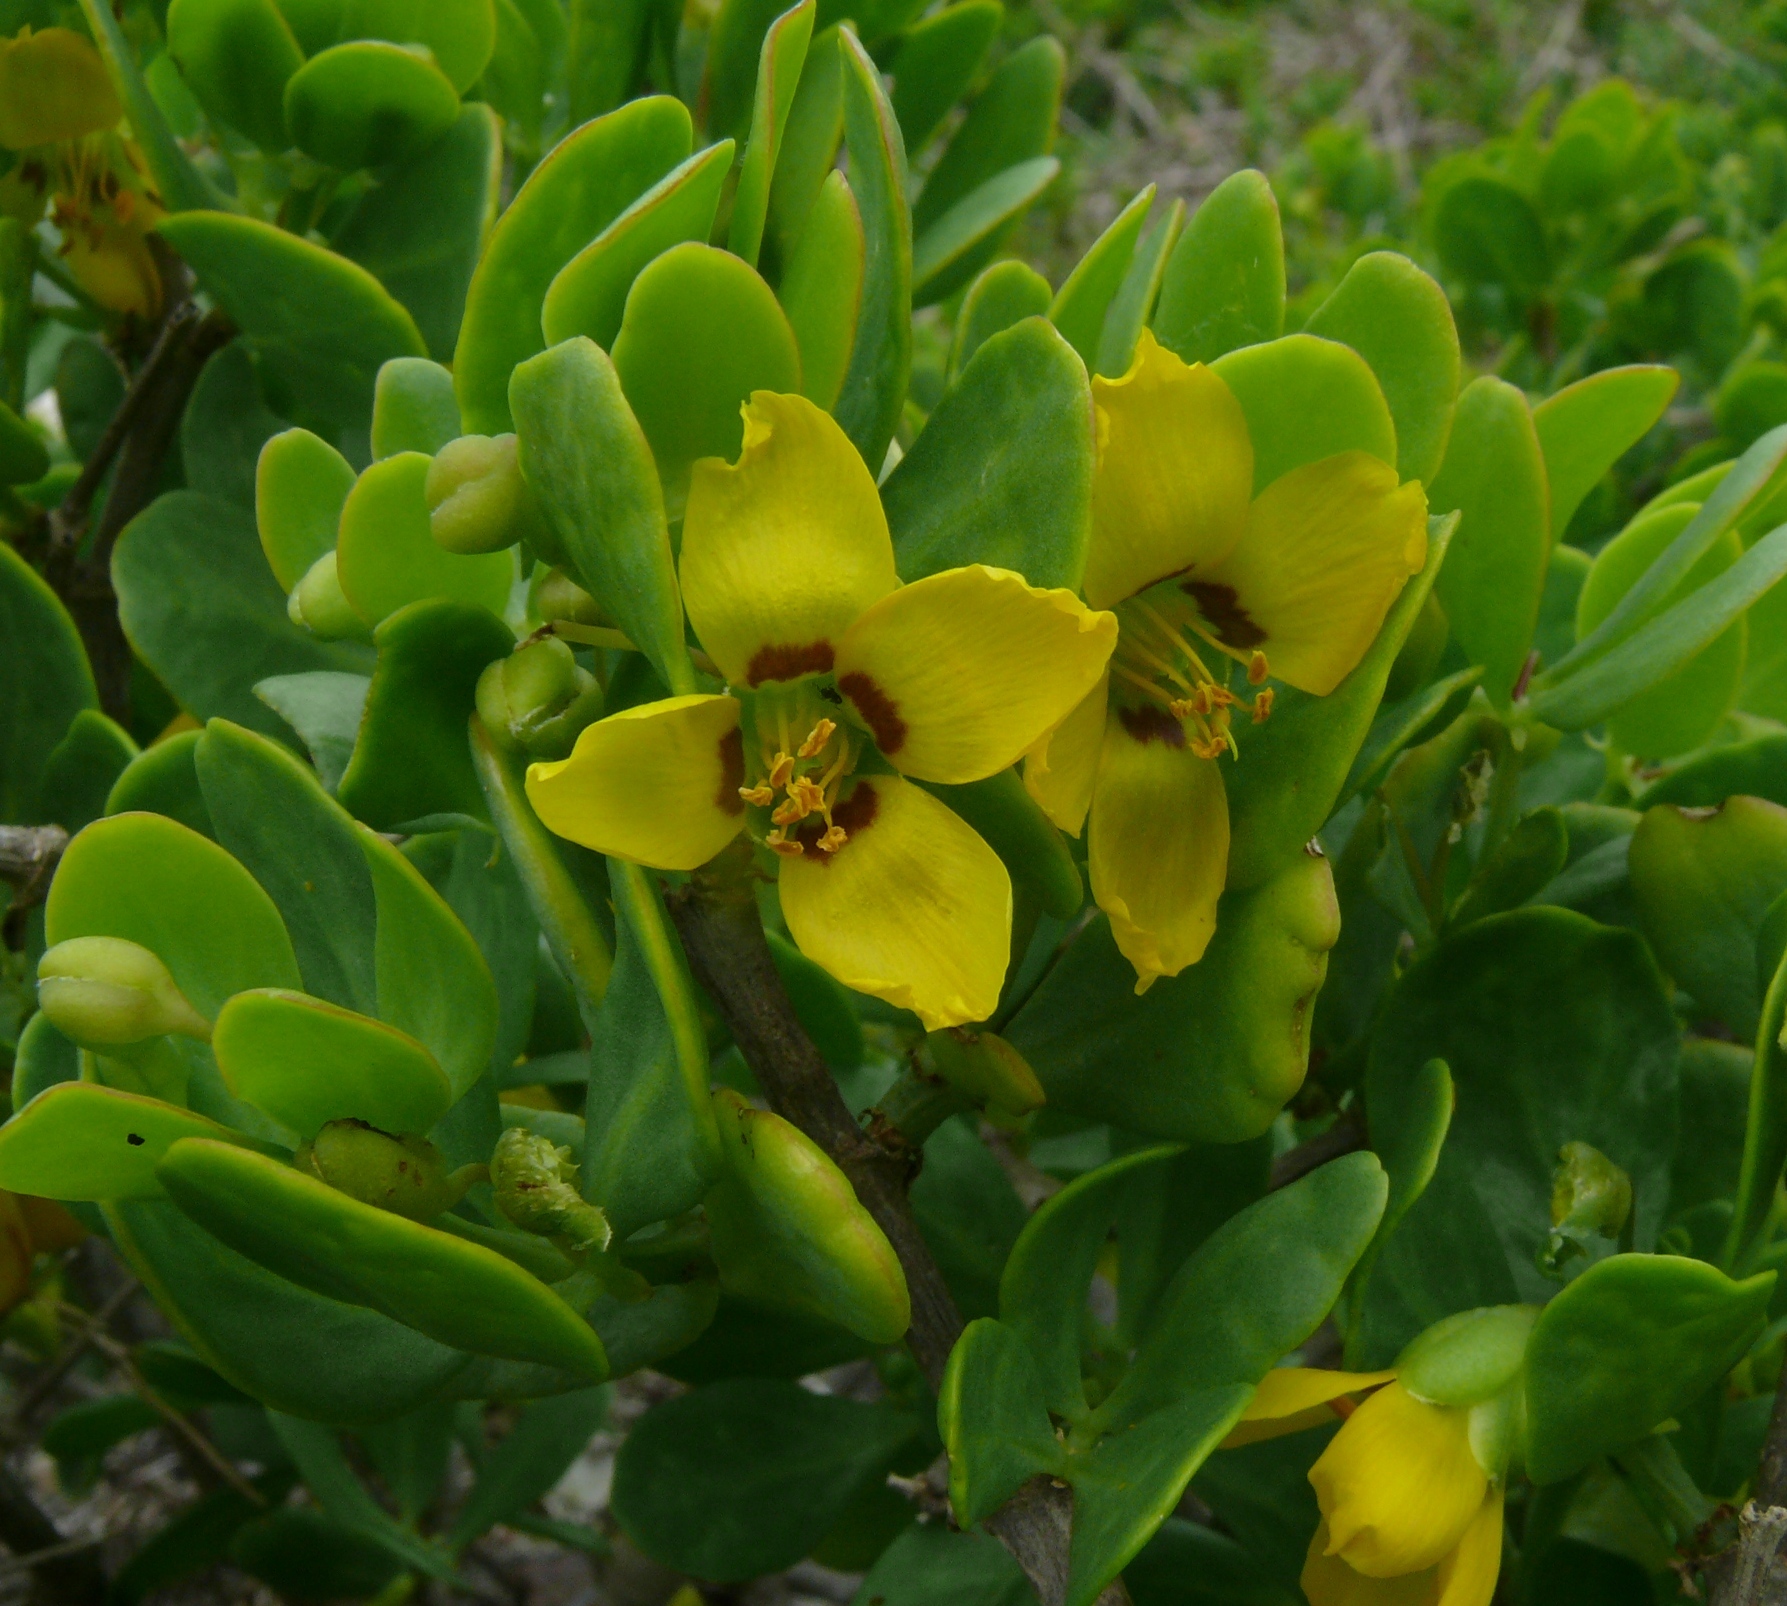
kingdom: Plantae
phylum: Tracheophyta
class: Magnoliopsida
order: Zygophyllales
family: Zygophyllaceae
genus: Roepera
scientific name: Roepera morgsana
